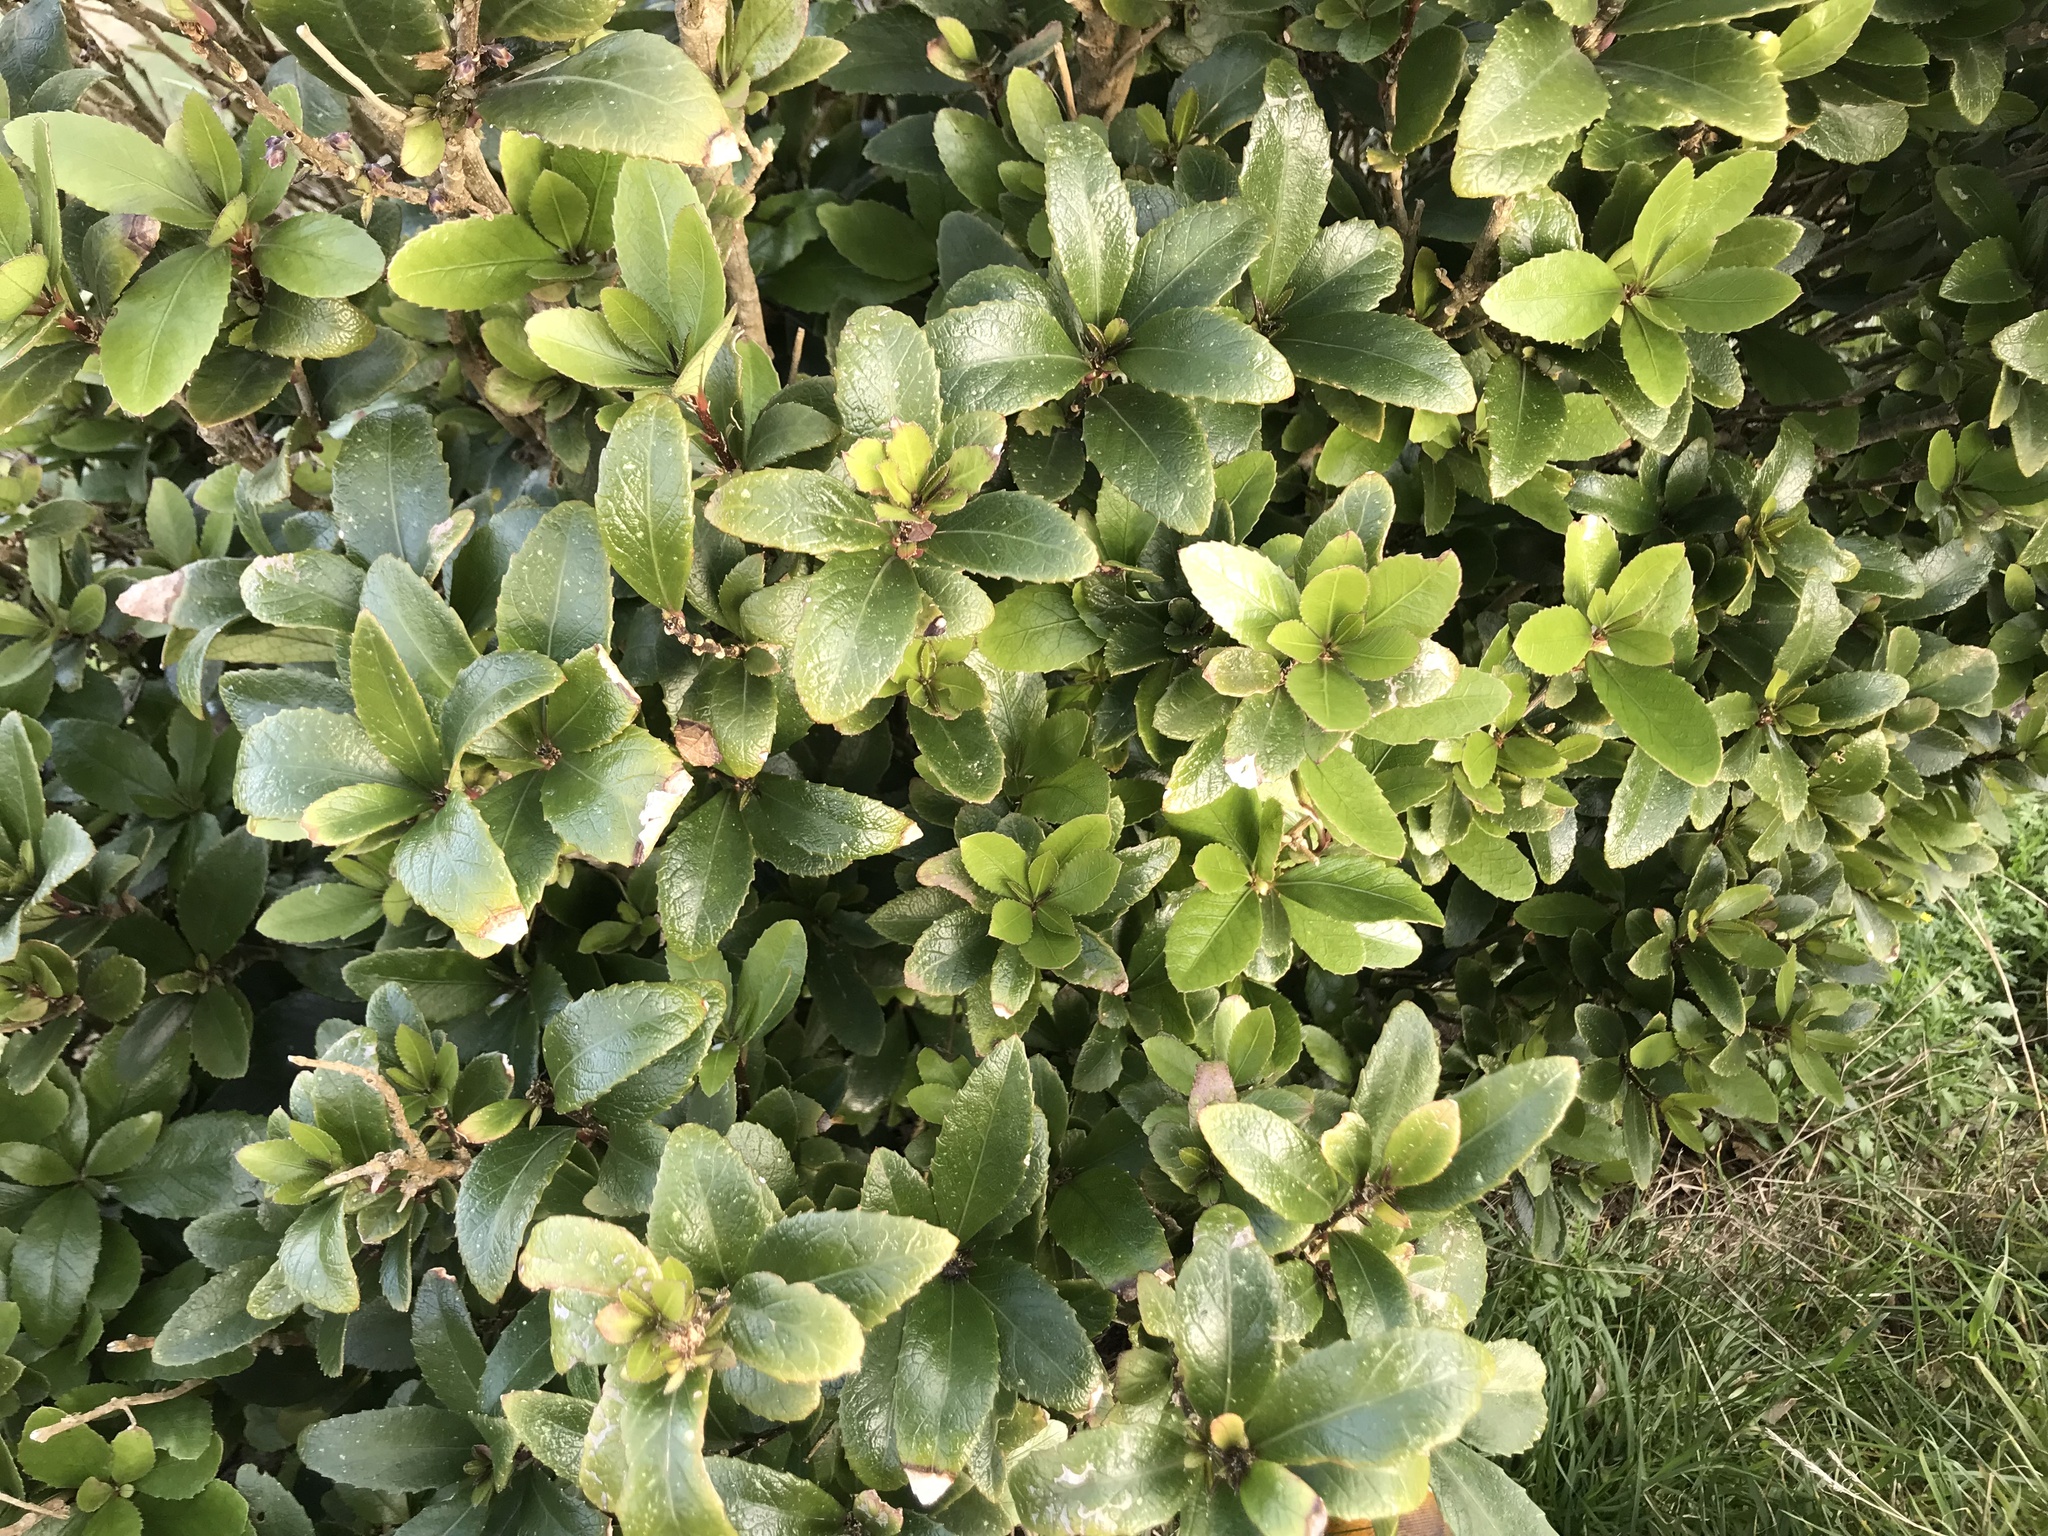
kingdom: Plantae
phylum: Tracheophyta
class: Magnoliopsida
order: Malpighiales
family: Violaceae
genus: Melicytus
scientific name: Melicytus chathamicus
